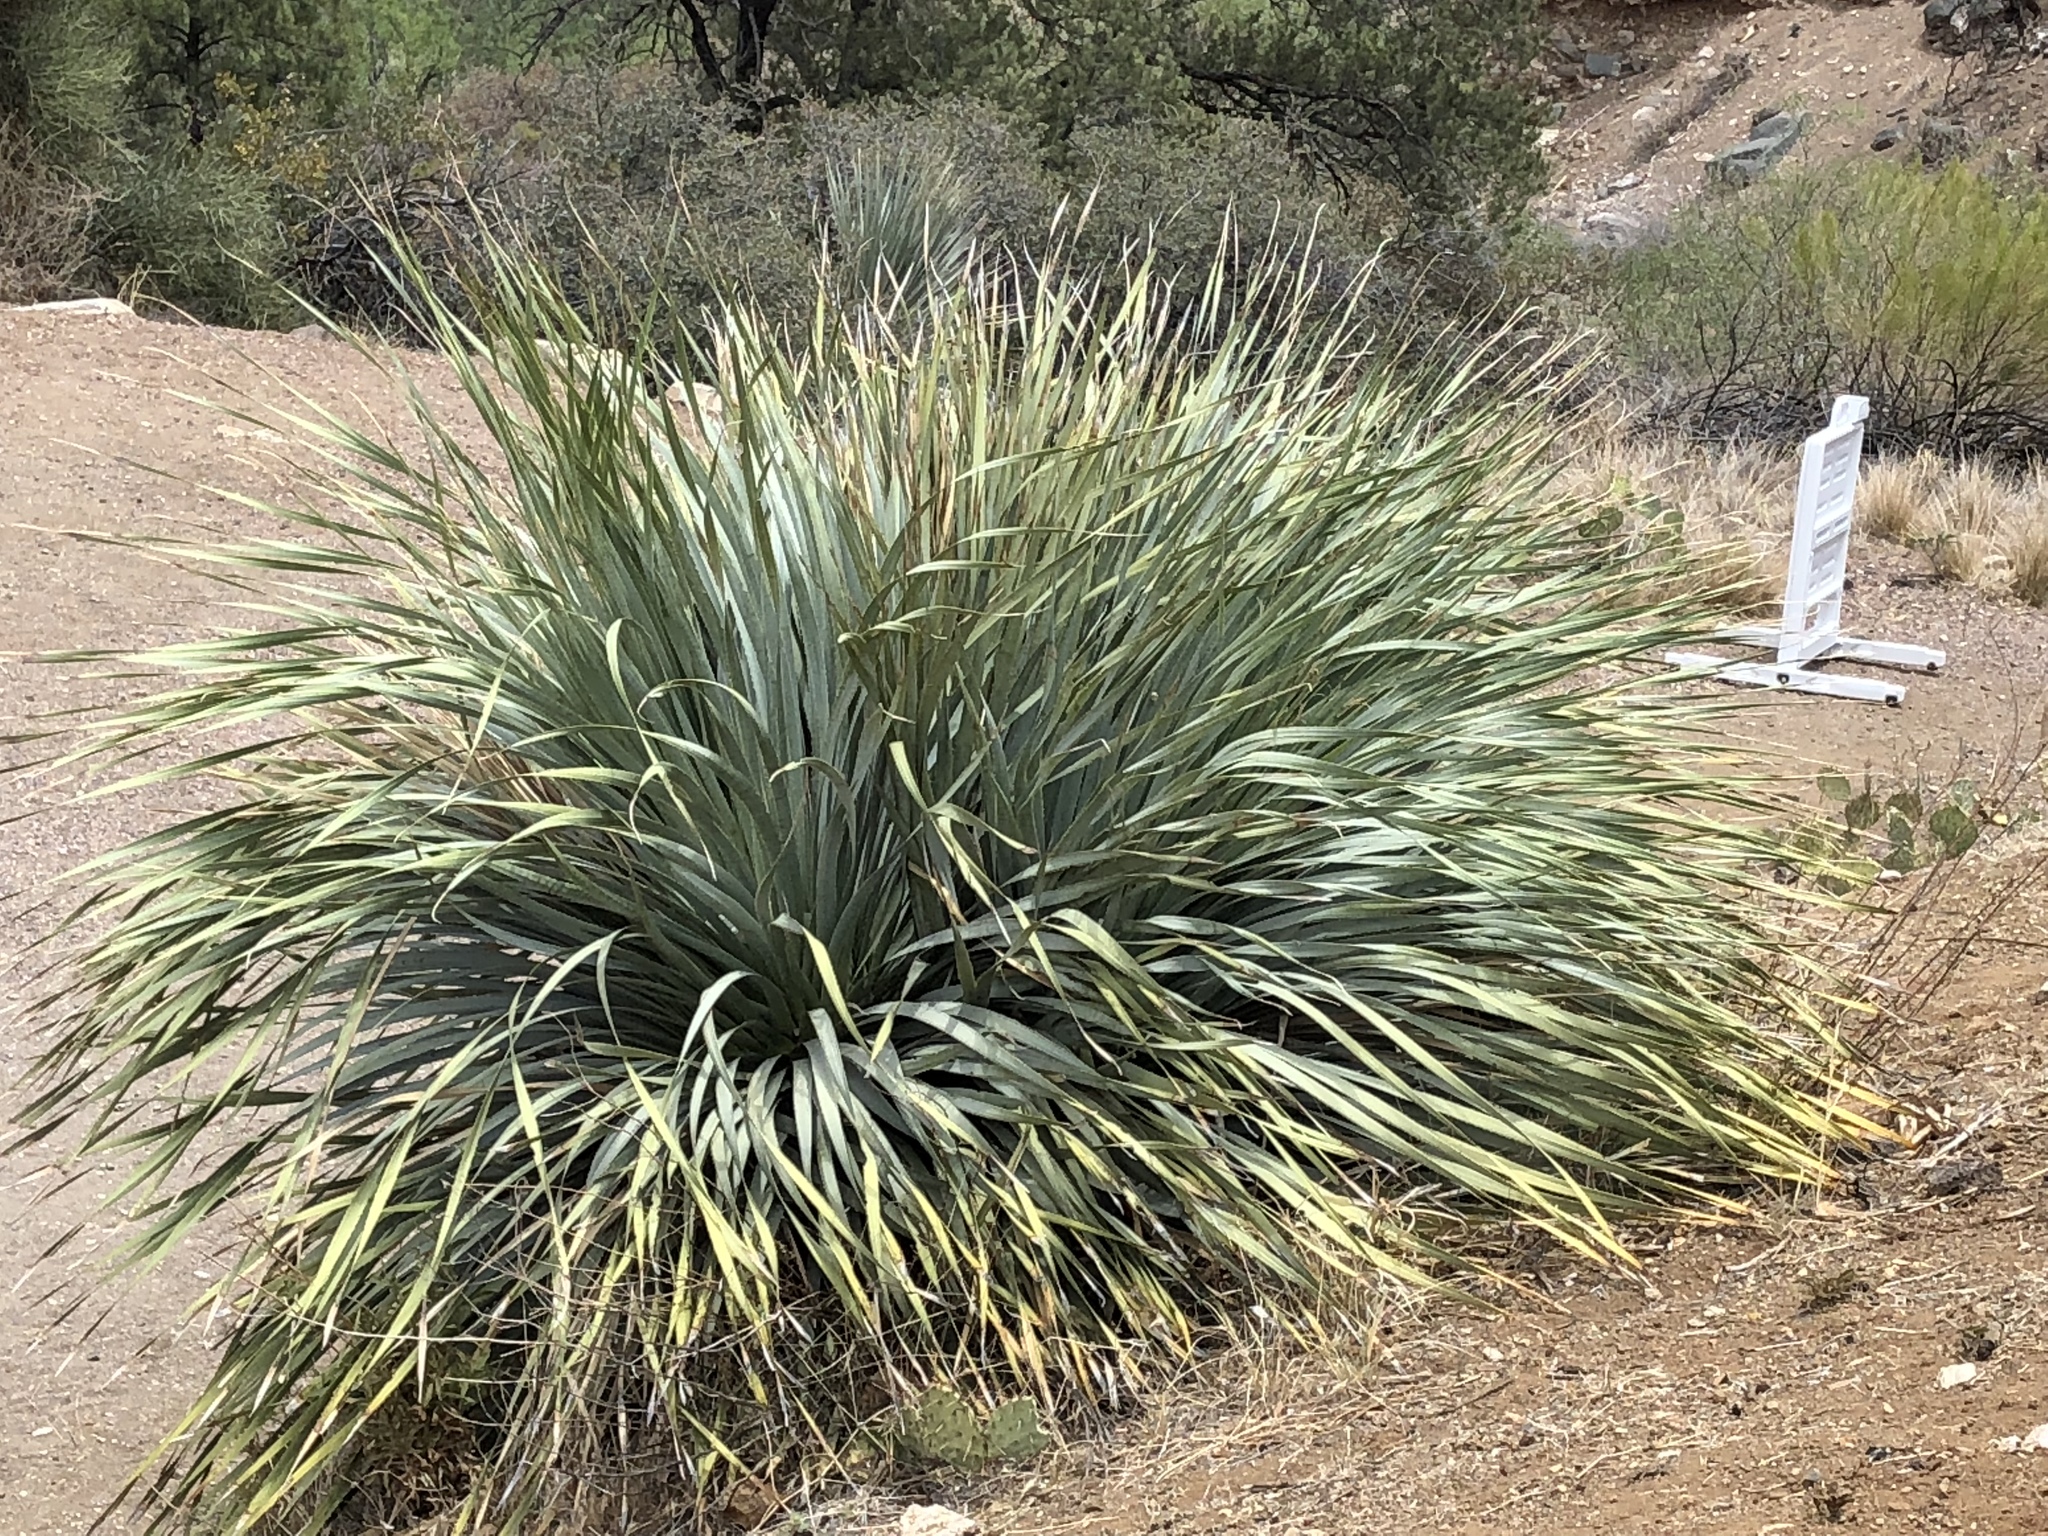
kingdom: Plantae
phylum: Tracheophyta
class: Liliopsida
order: Asparagales
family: Asparagaceae
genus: Dasylirion
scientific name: Dasylirion wheeleri
